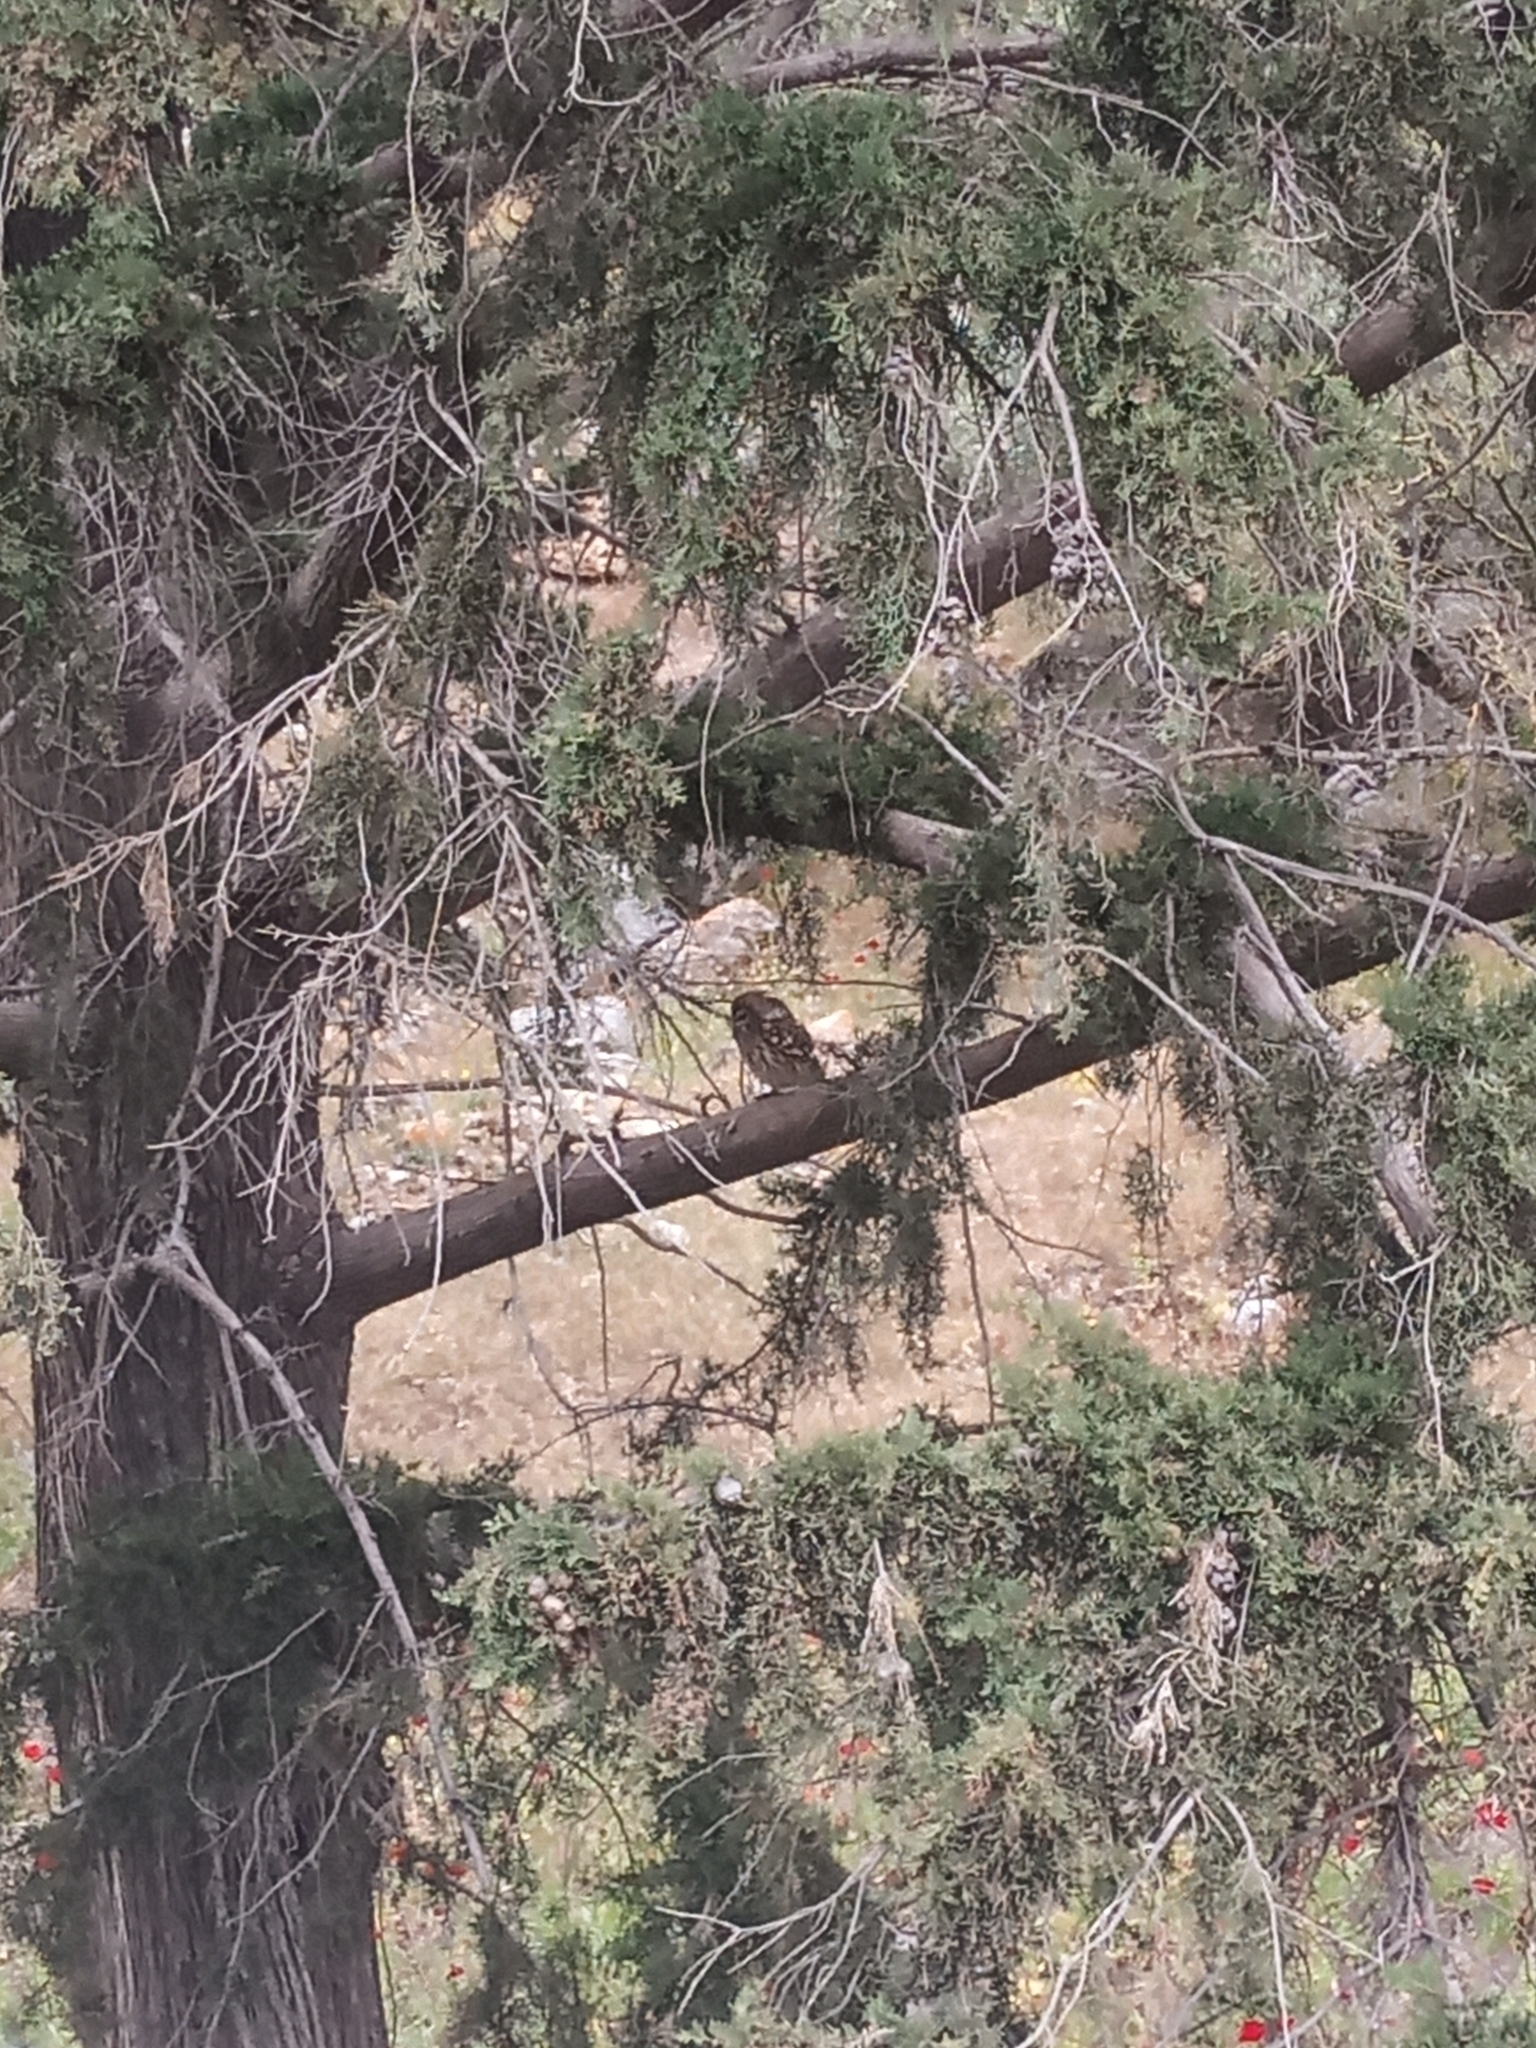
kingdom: Animalia
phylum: Chordata
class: Aves
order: Strigiformes
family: Strigidae
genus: Athene
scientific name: Athene noctua
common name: Little owl
